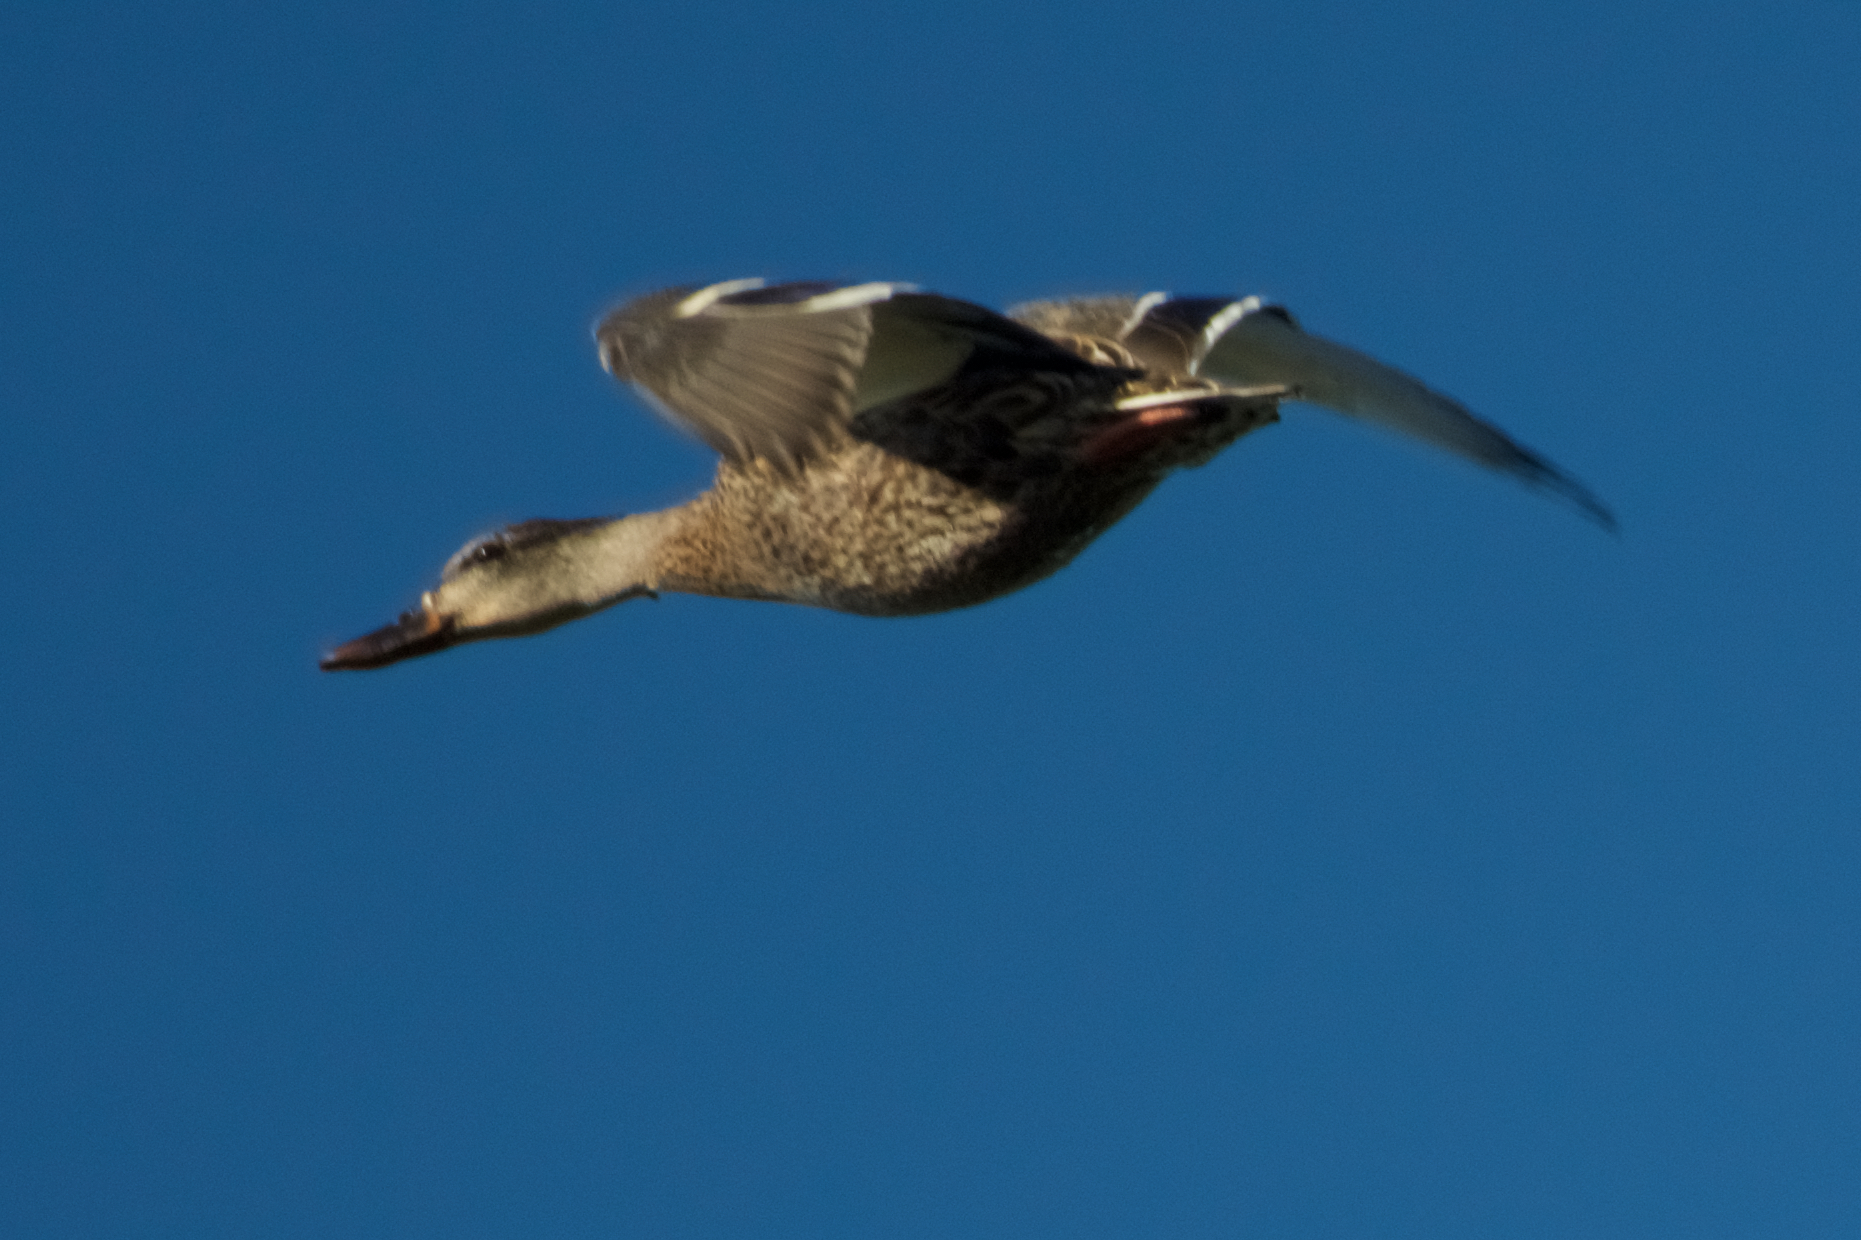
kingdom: Animalia
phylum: Chordata
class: Aves
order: Anseriformes
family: Anatidae
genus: Anas
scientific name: Anas platyrhynchos
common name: Mallard
